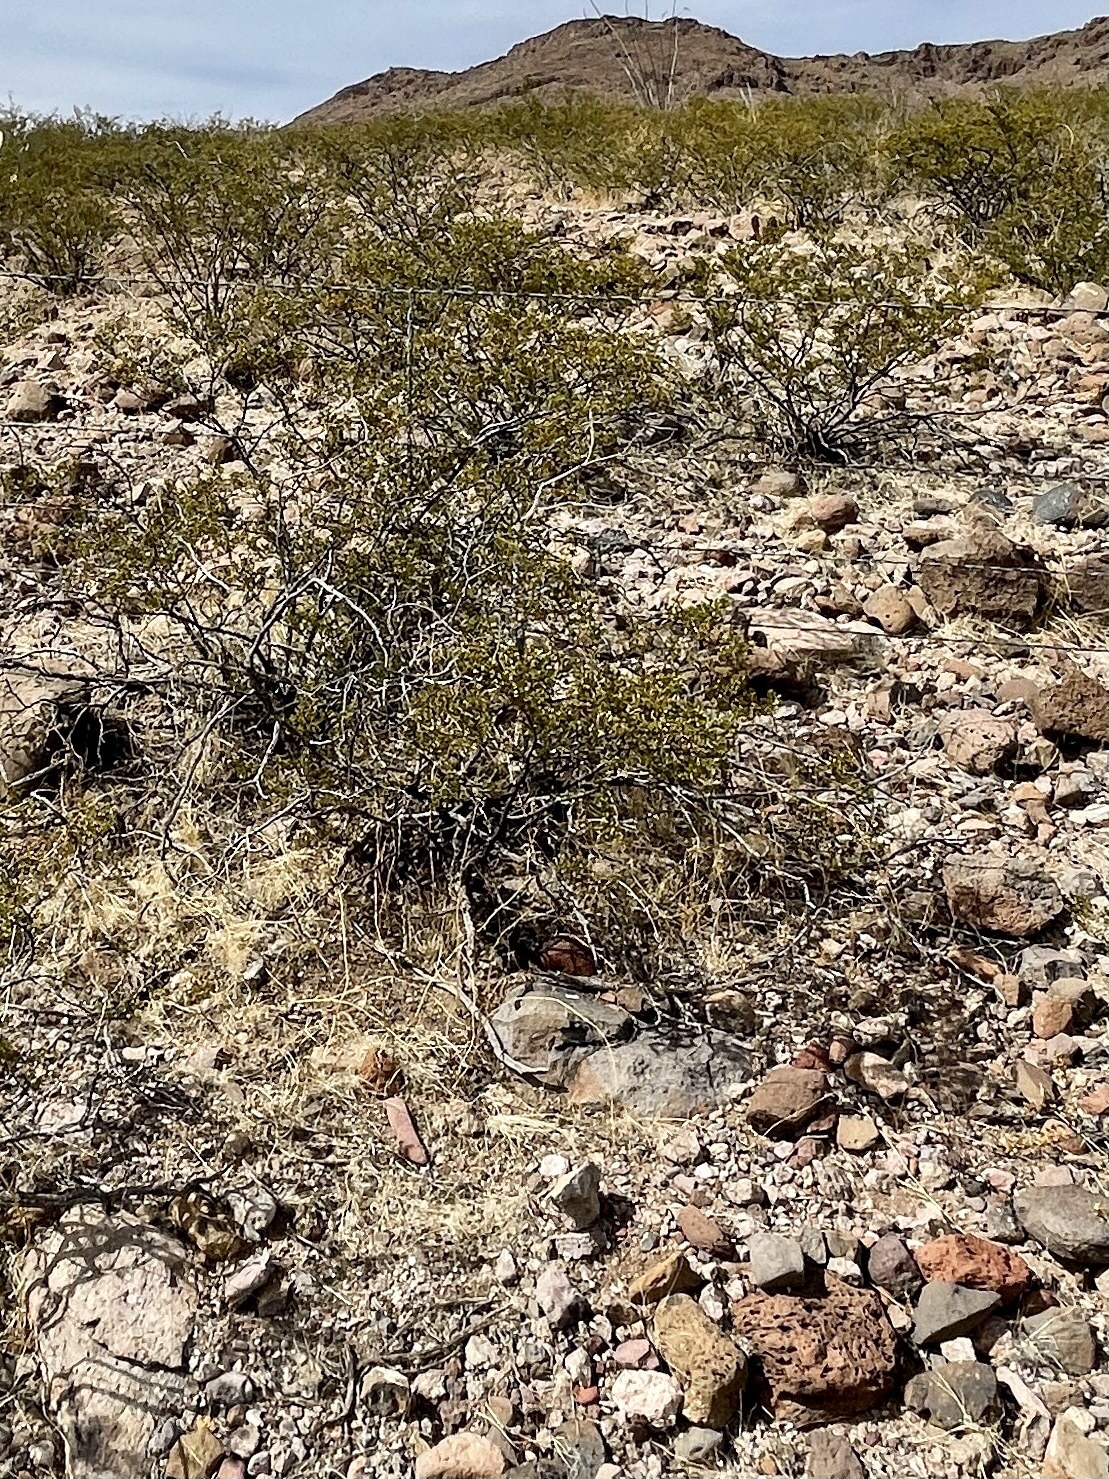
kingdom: Plantae
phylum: Tracheophyta
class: Magnoliopsida
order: Zygophyllales
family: Zygophyllaceae
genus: Larrea
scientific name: Larrea tridentata
